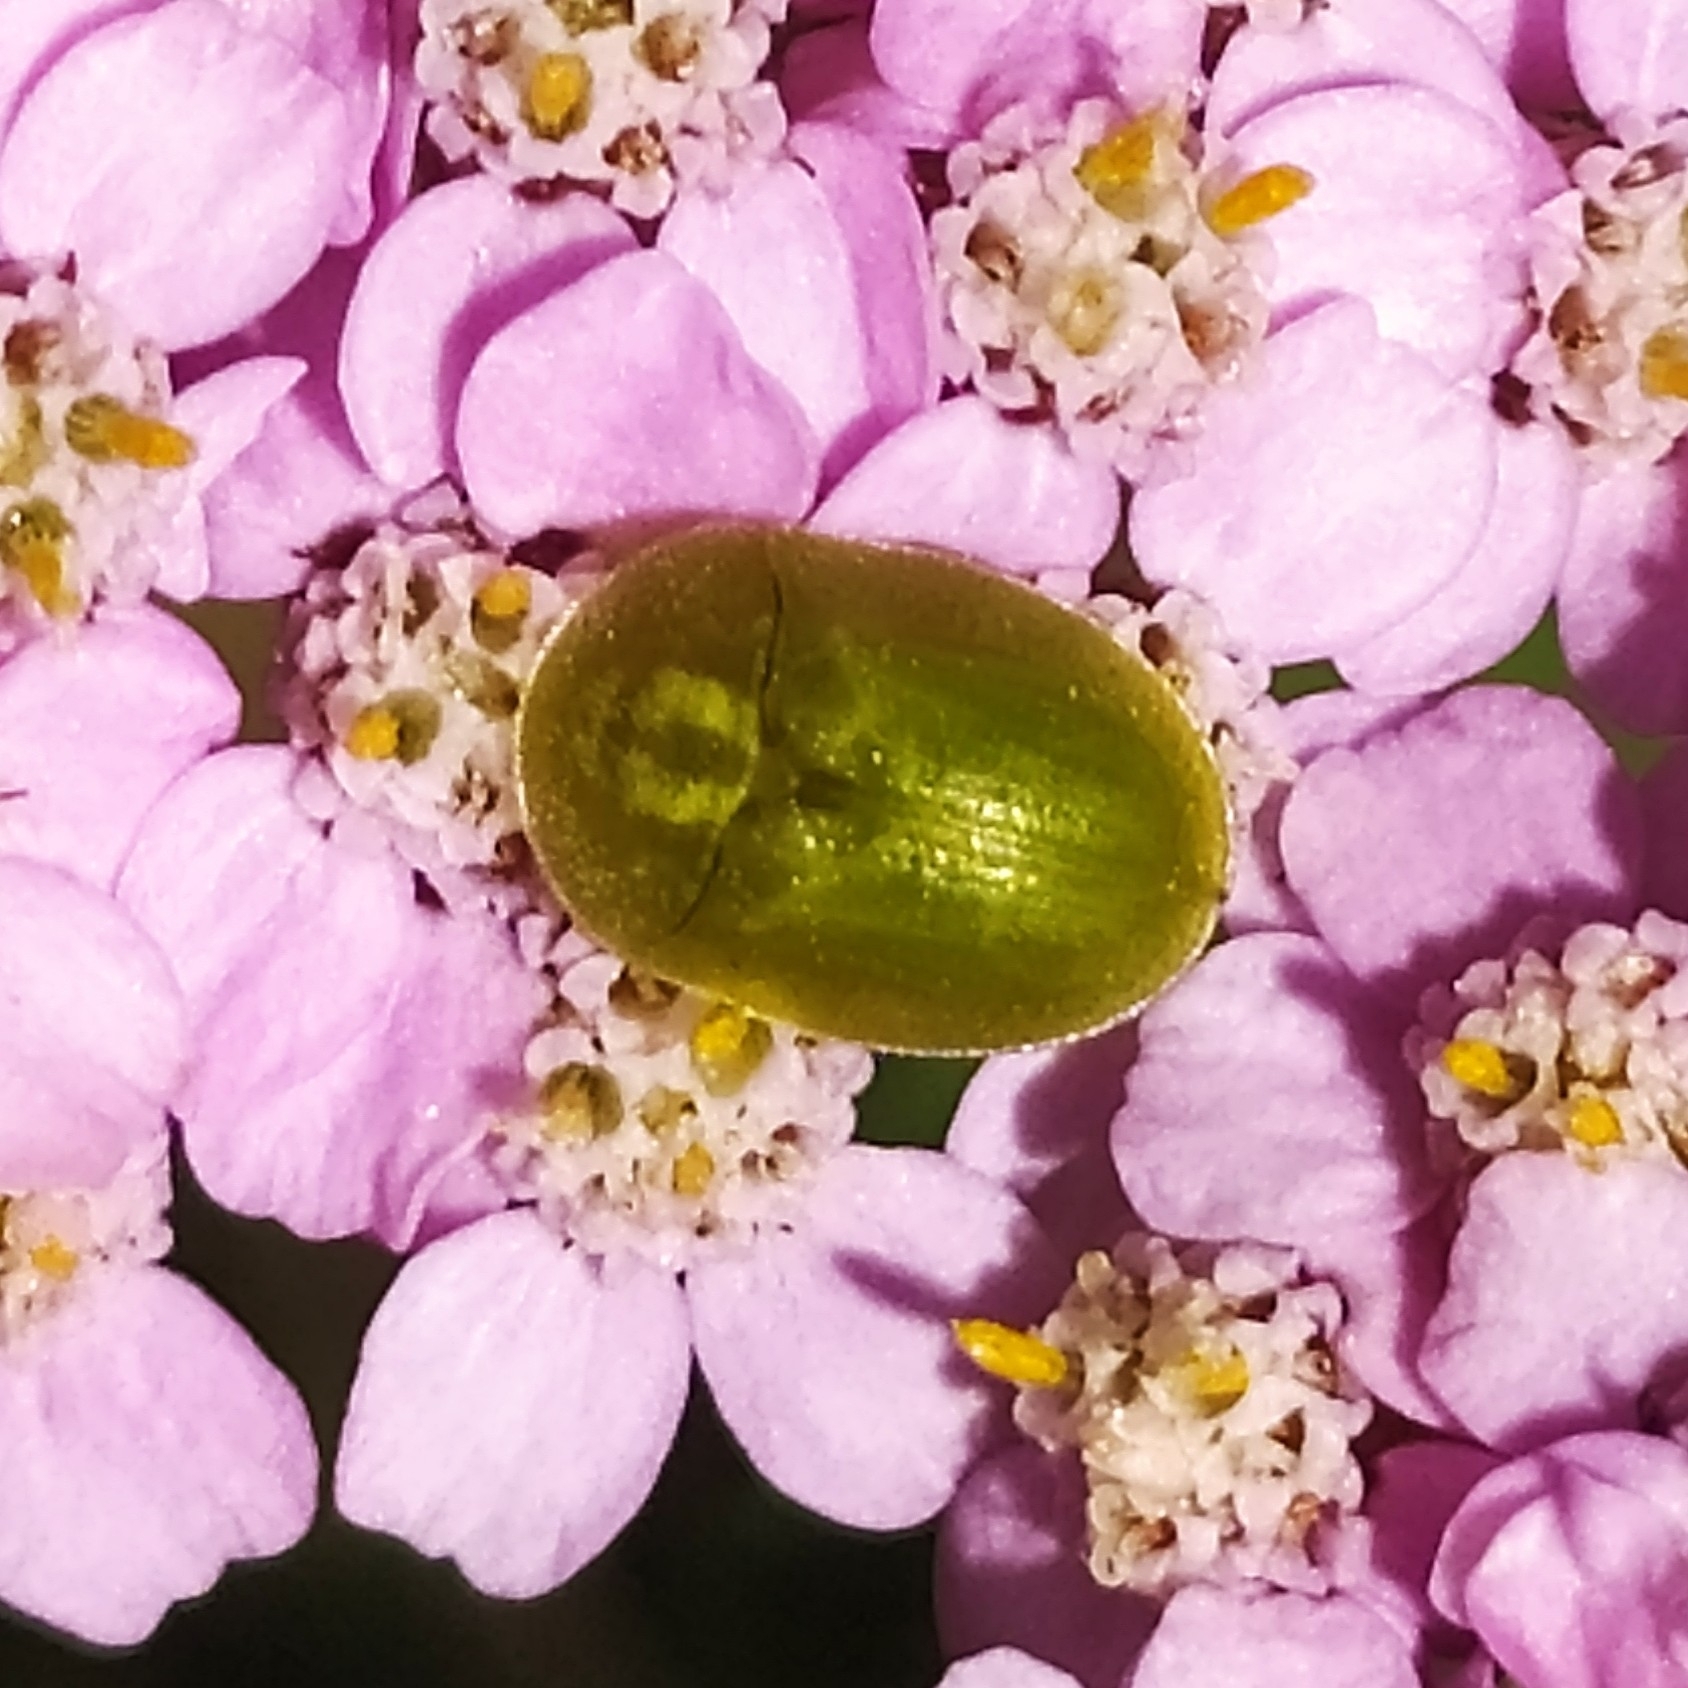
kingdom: Animalia
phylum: Arthropoda
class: Insecta
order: Coleoptera
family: Chrysomelidae
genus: Cassida
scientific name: Cassida rubiginosa
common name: Thistle tortoise beetle
